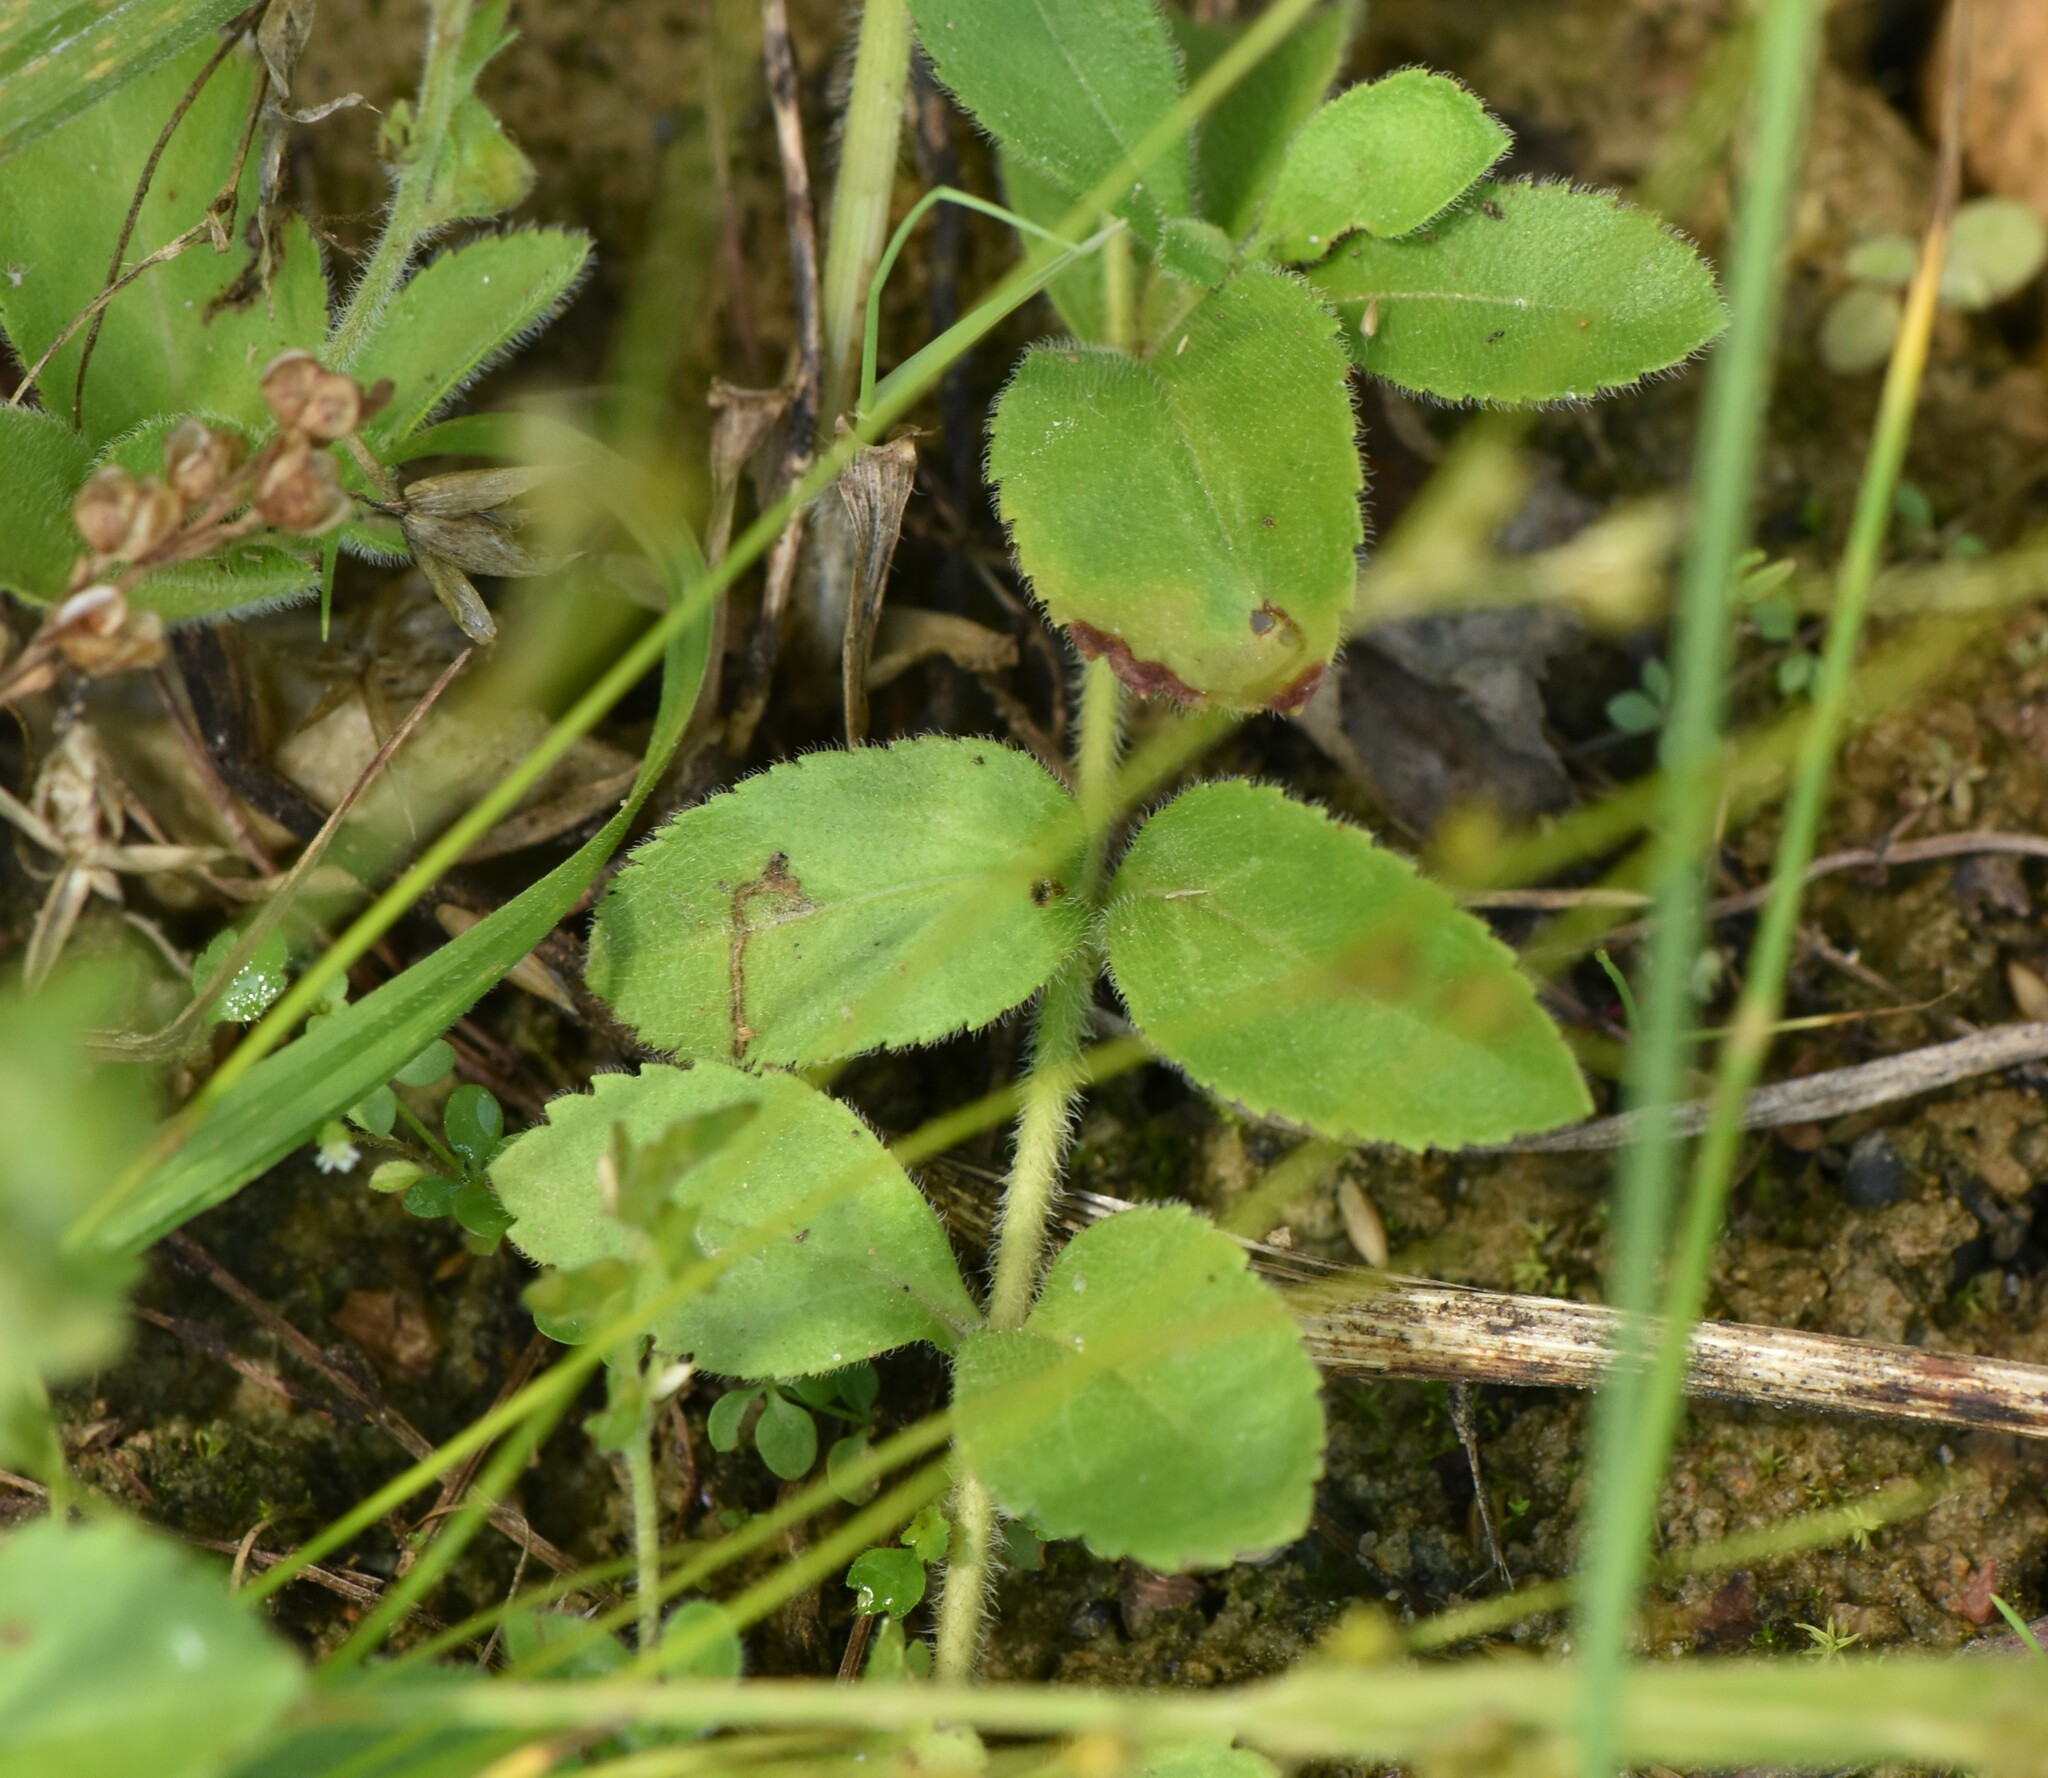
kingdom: Plantae
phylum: Tracheophyta
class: Magnoliopsida
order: Lamiales
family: Plantaginaceae
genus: Veronica
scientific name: Veronica officinalis
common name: Common speedwell
